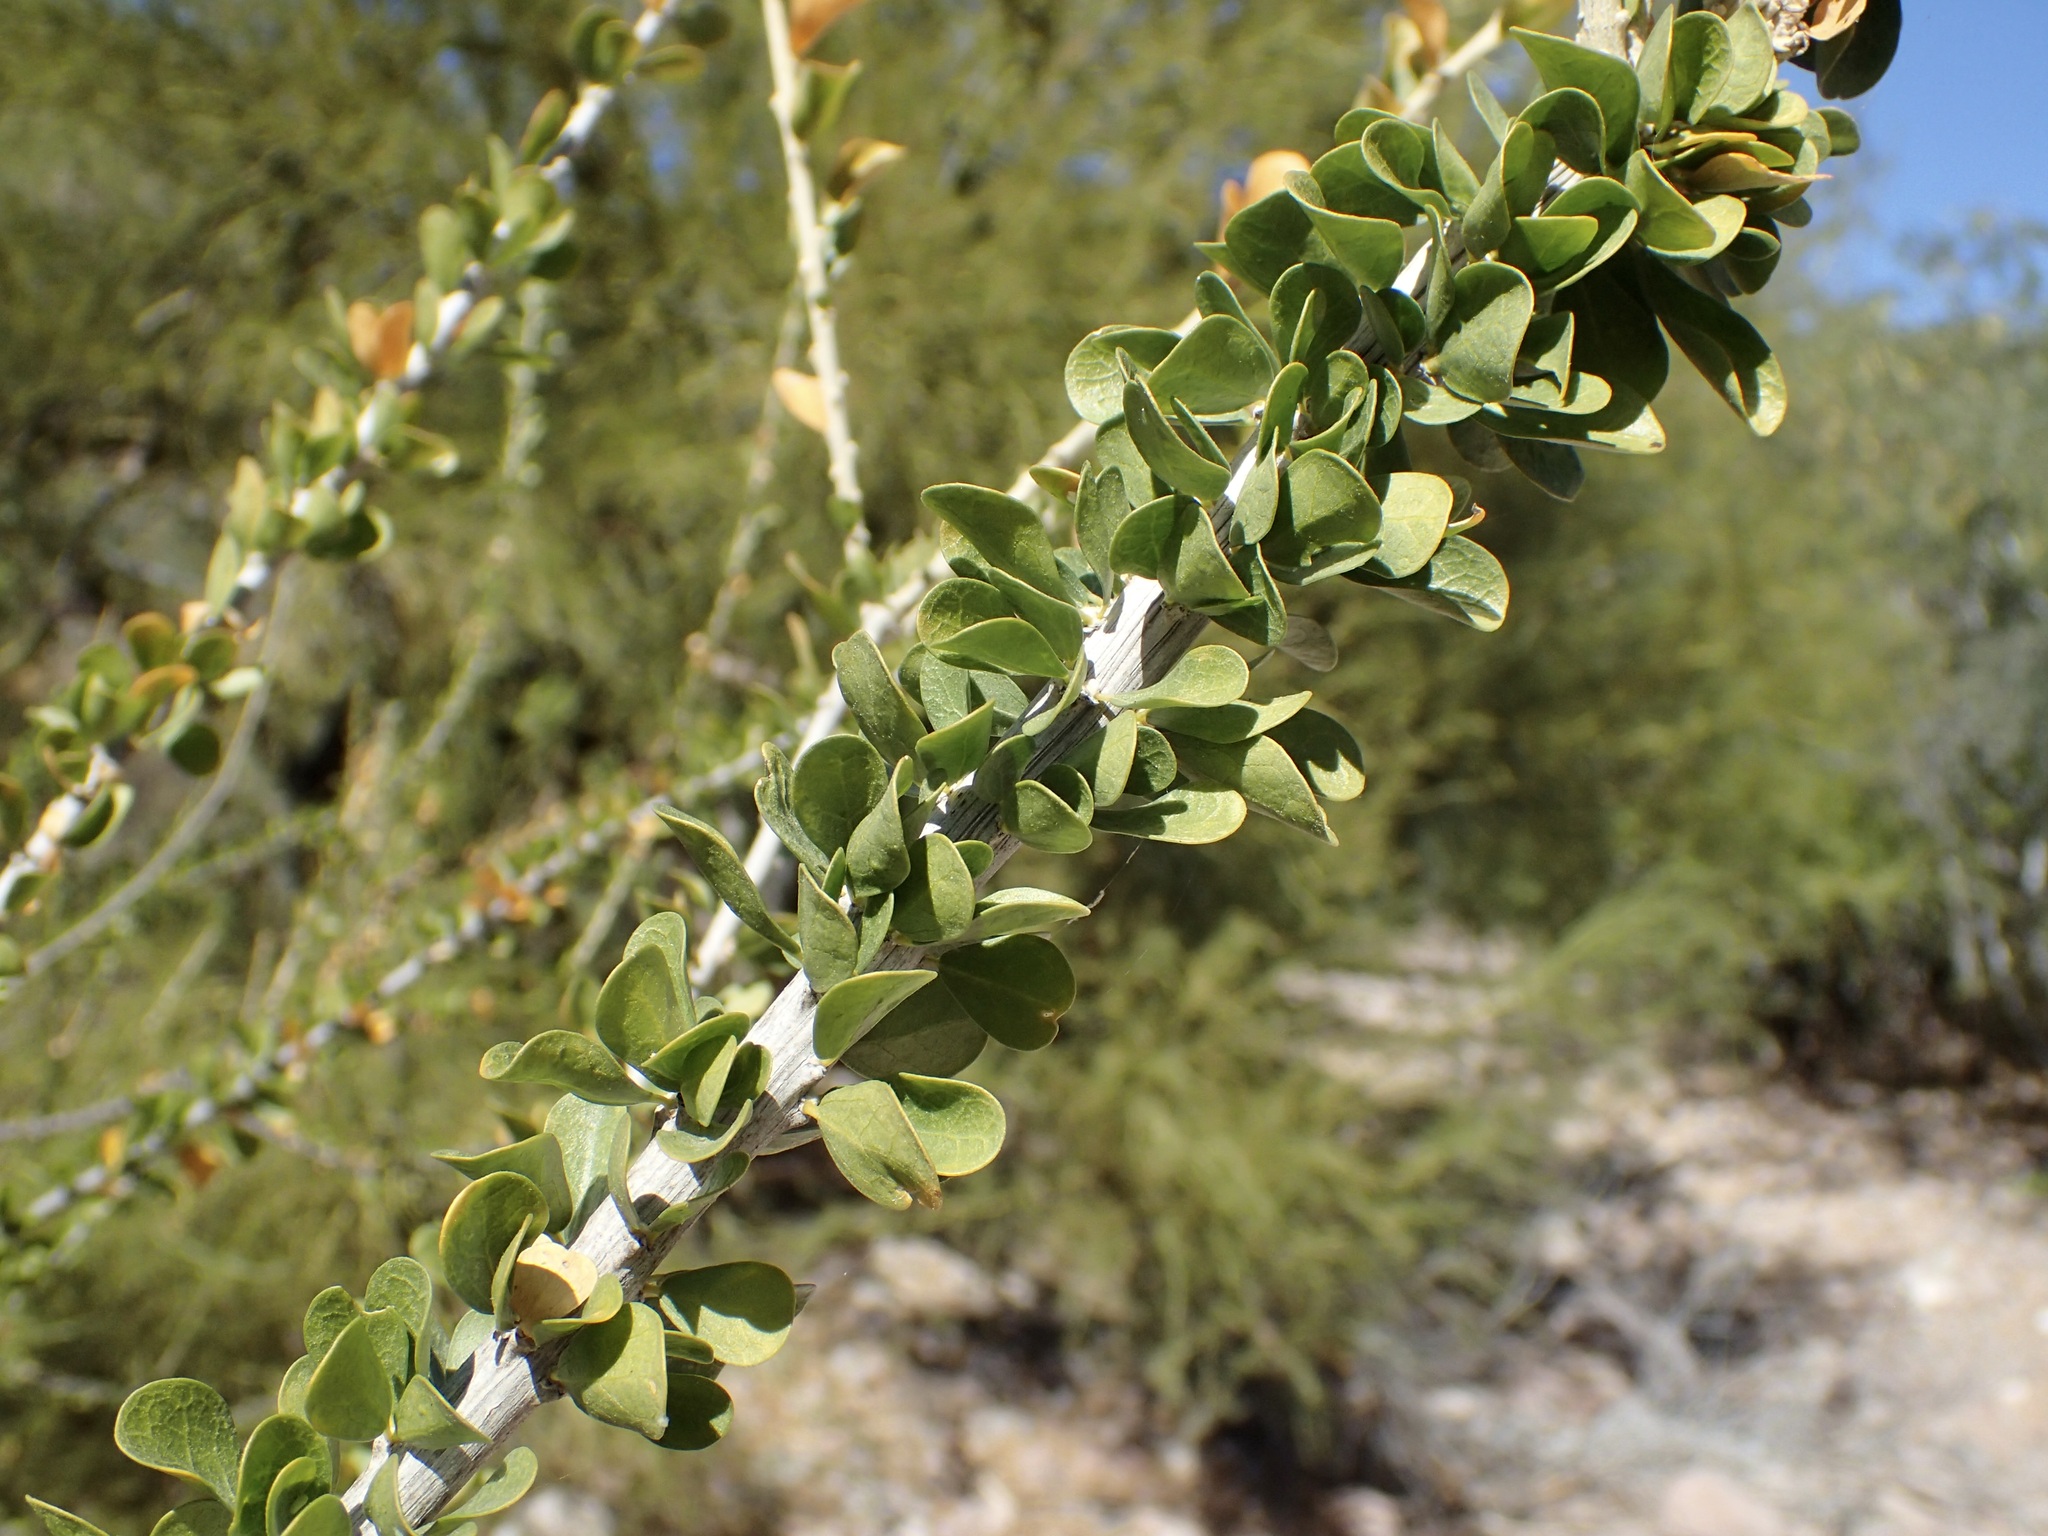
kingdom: Plantae
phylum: Tracheophyta
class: Magnoliopsida
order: Malpighiales
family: Euphorbiaceae
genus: Adelia
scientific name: Adelia brandegeei
